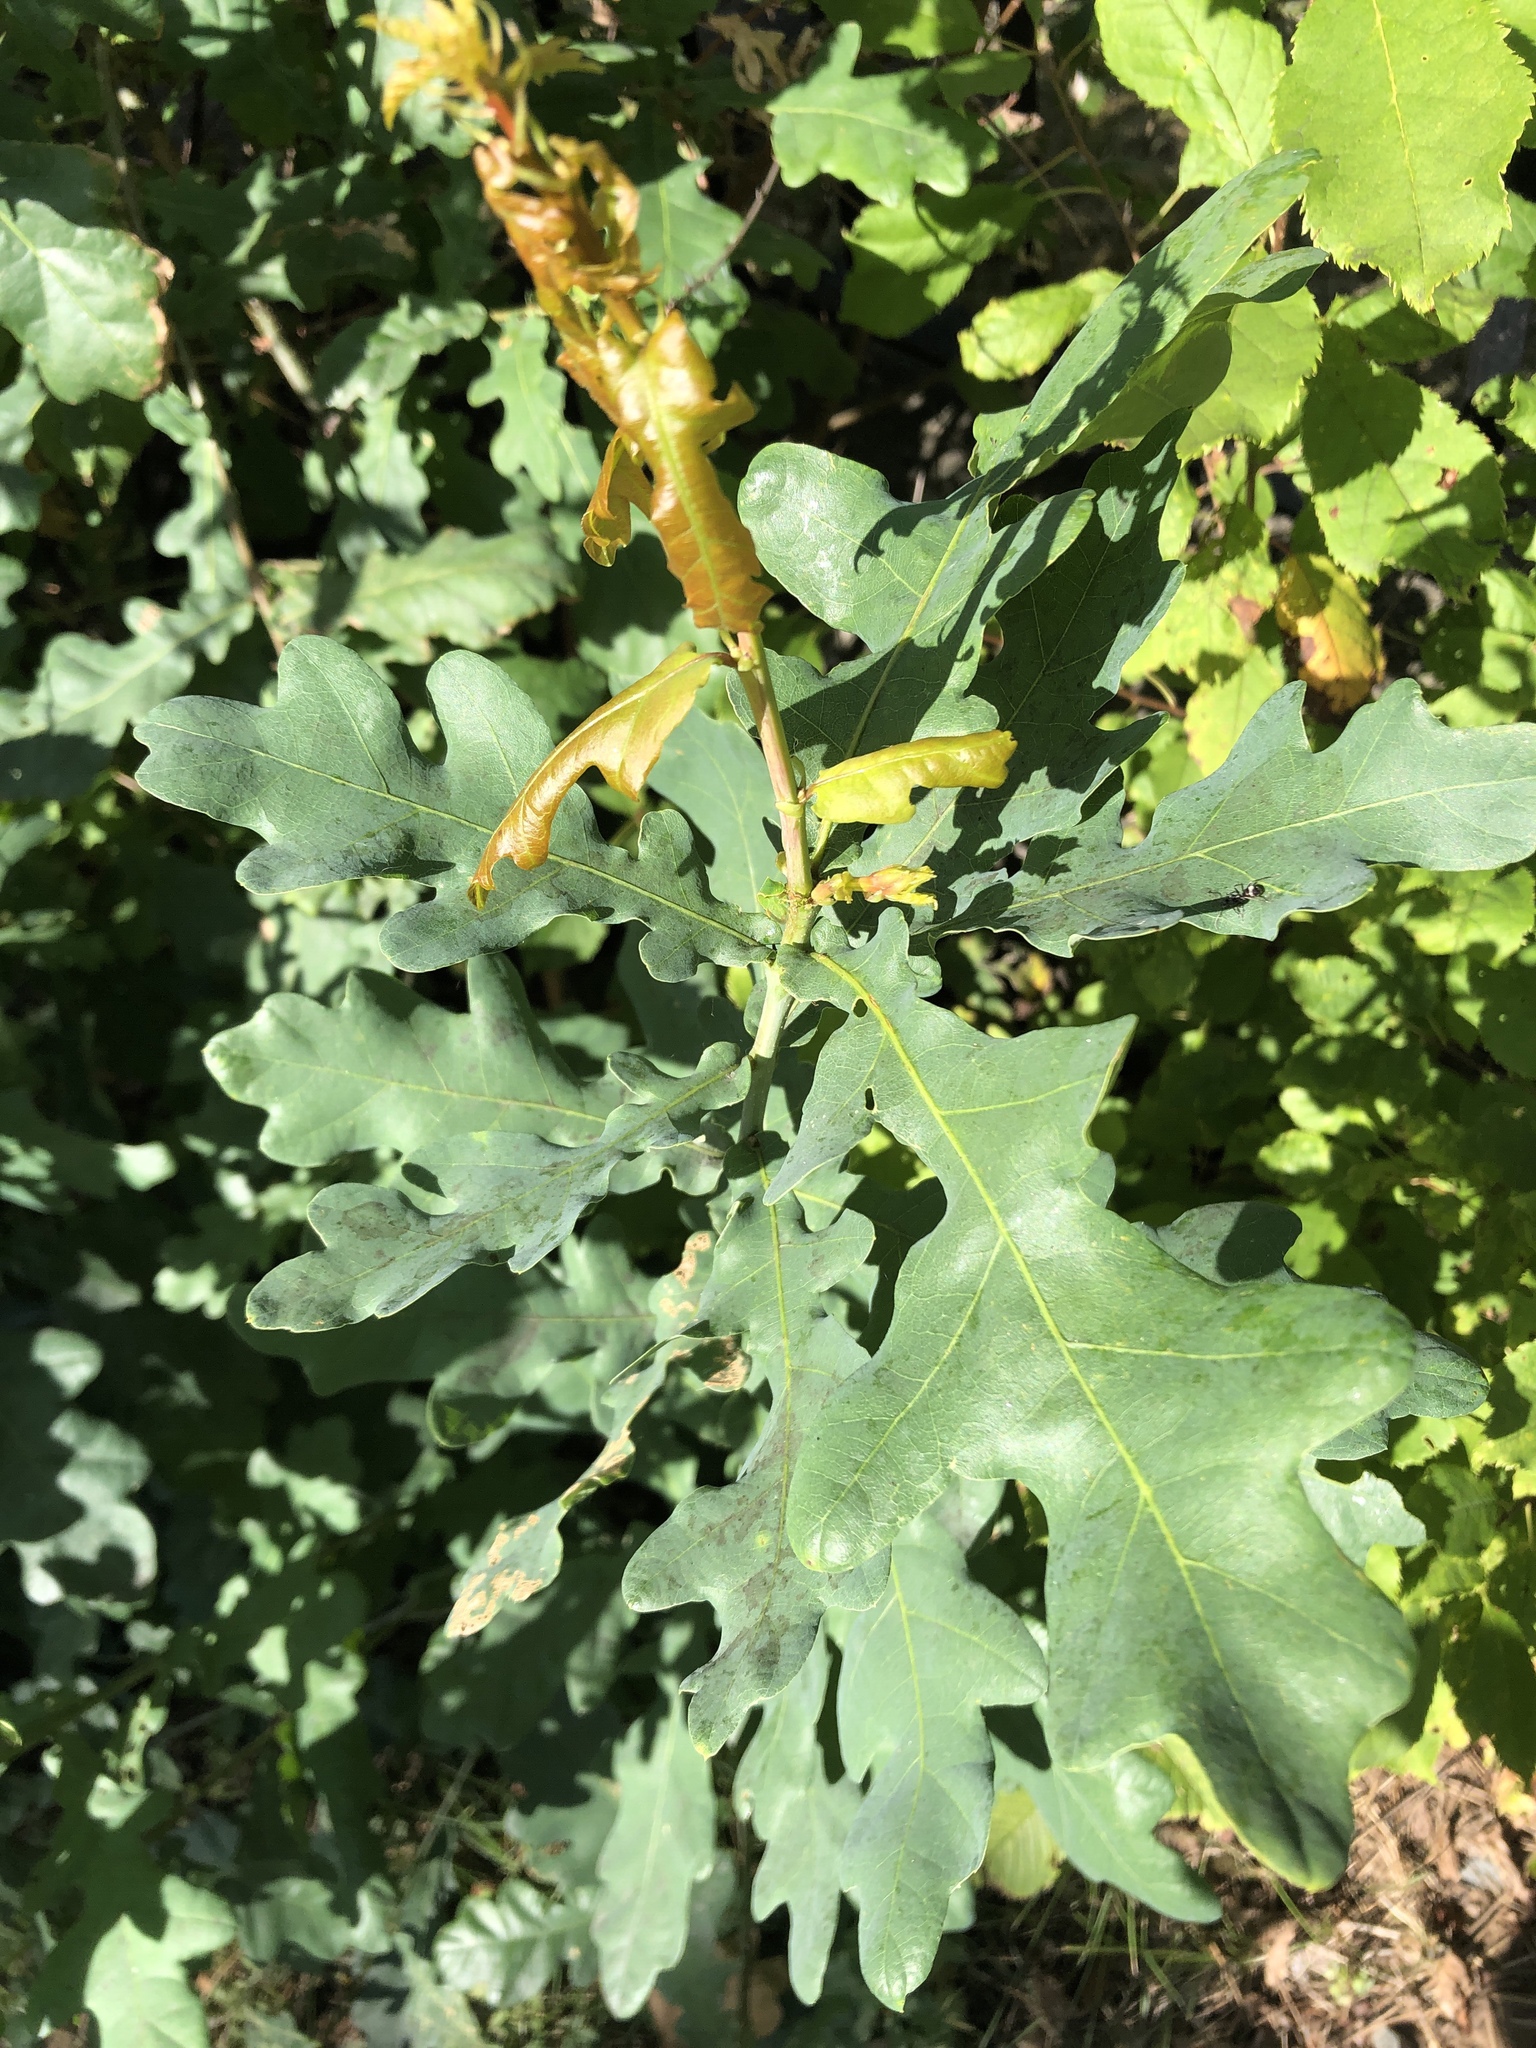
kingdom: Plantae
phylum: Tracheophyta
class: Magnoliopsida
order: Fagales
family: Fagaceae
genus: Quercus
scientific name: Quercus robur
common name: Pedunculate oak
